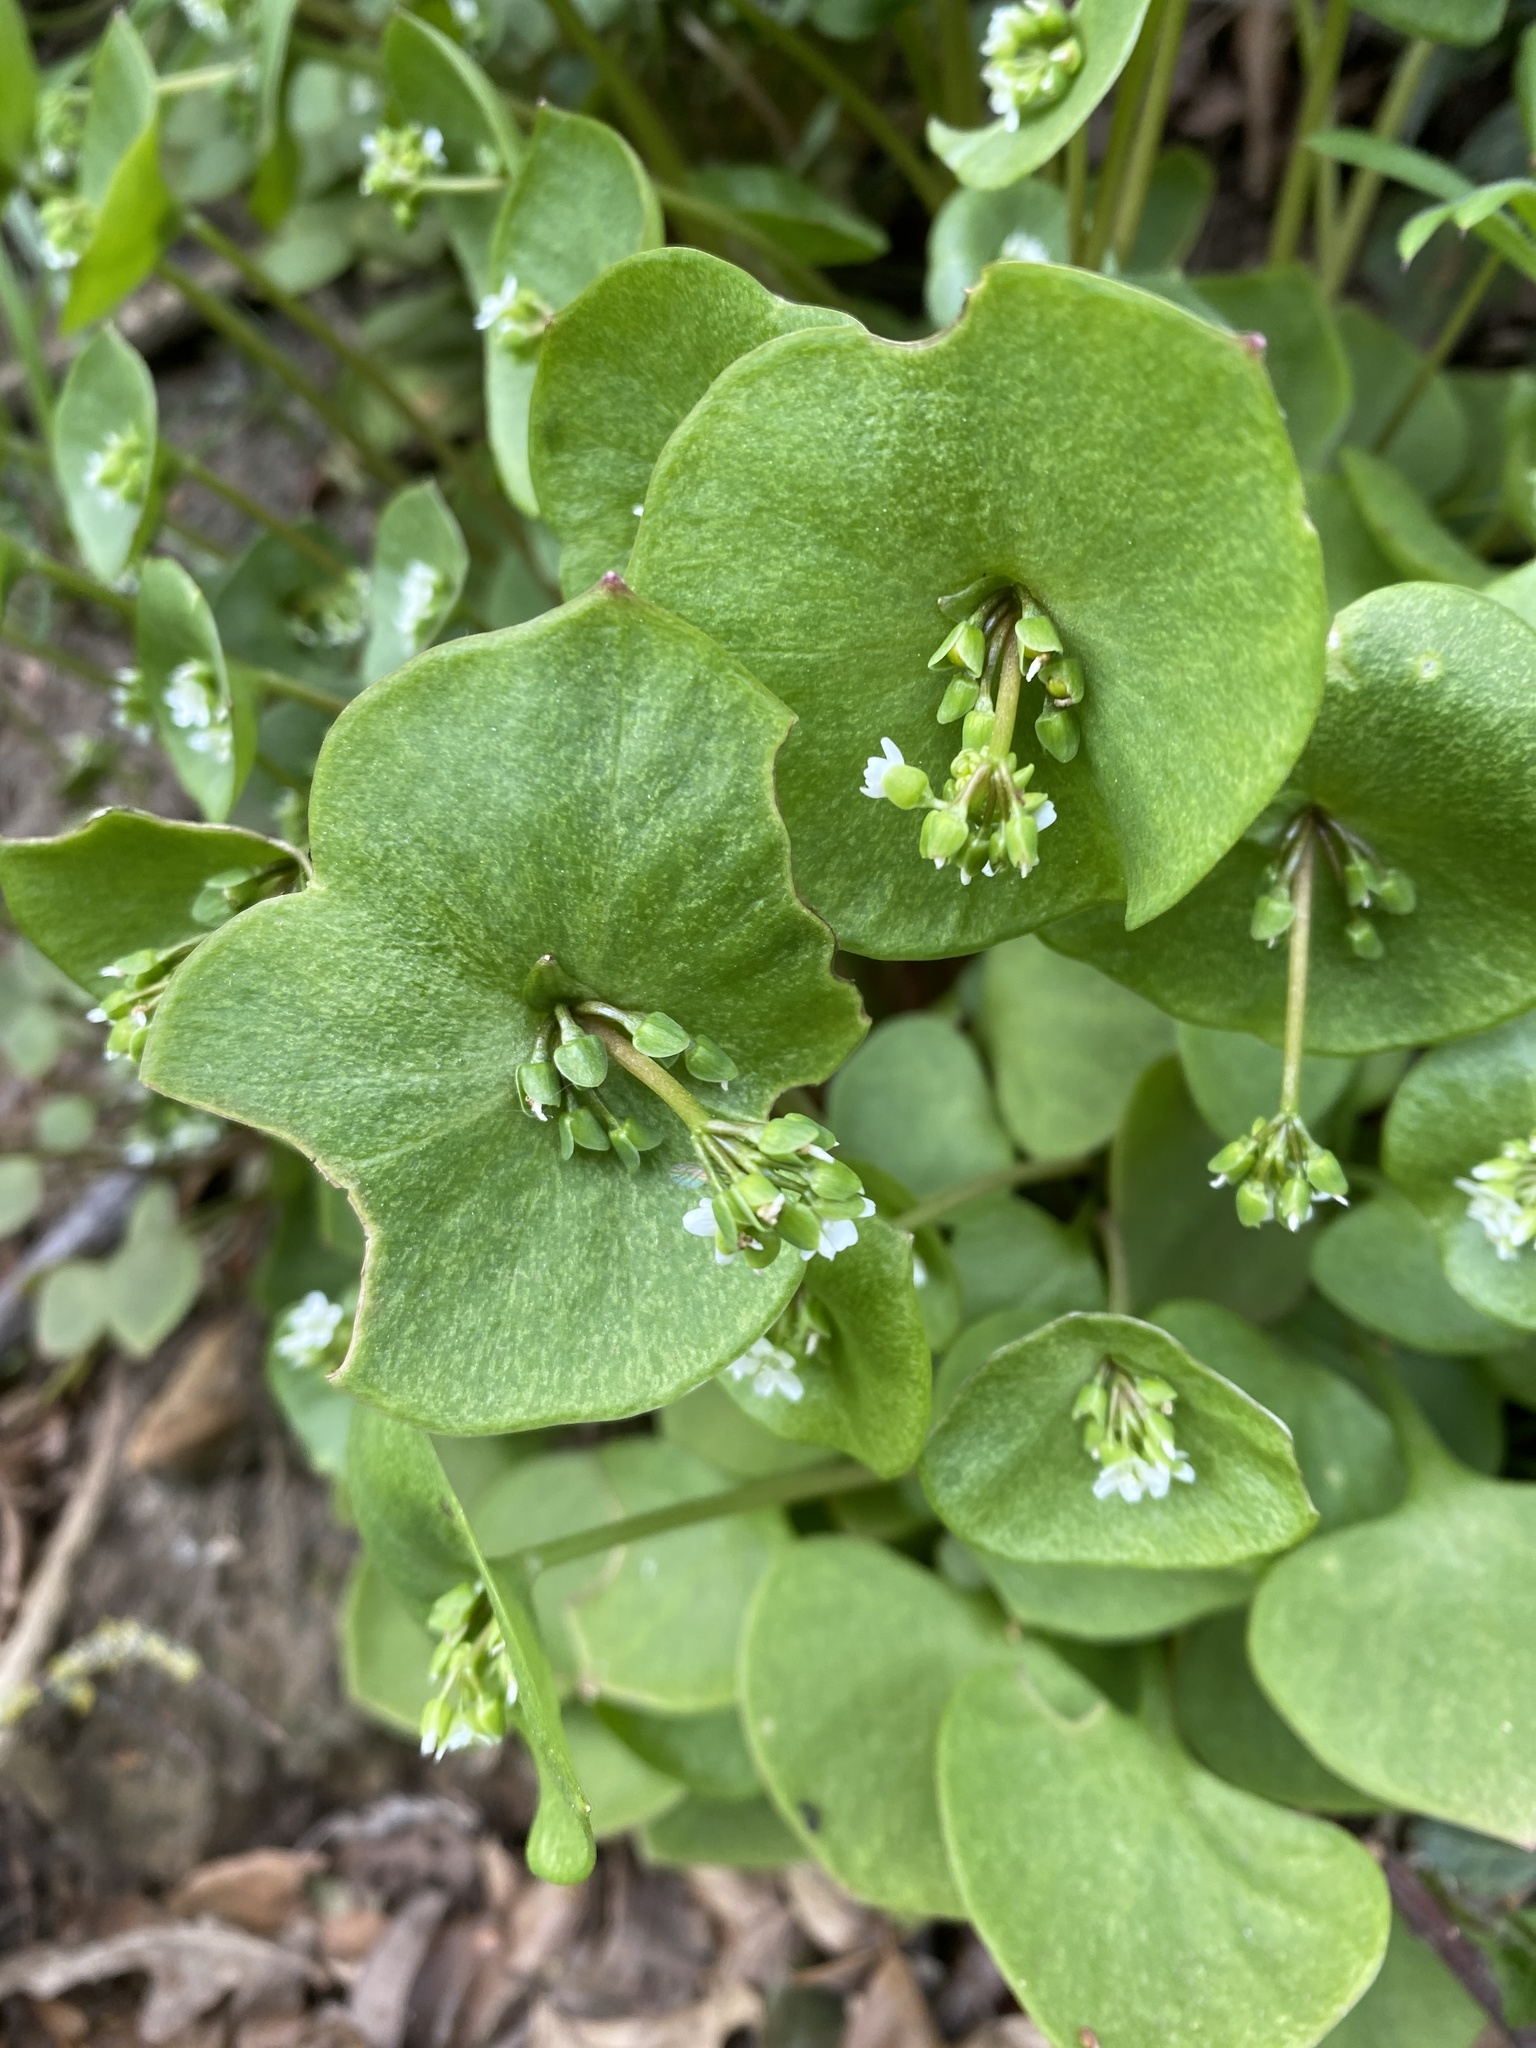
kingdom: Plantae
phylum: Tracheophyta
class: Magnoliopsida
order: Caryophyllales
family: Montiaceae
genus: Claytonia
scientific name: Claytonia perfoliata
